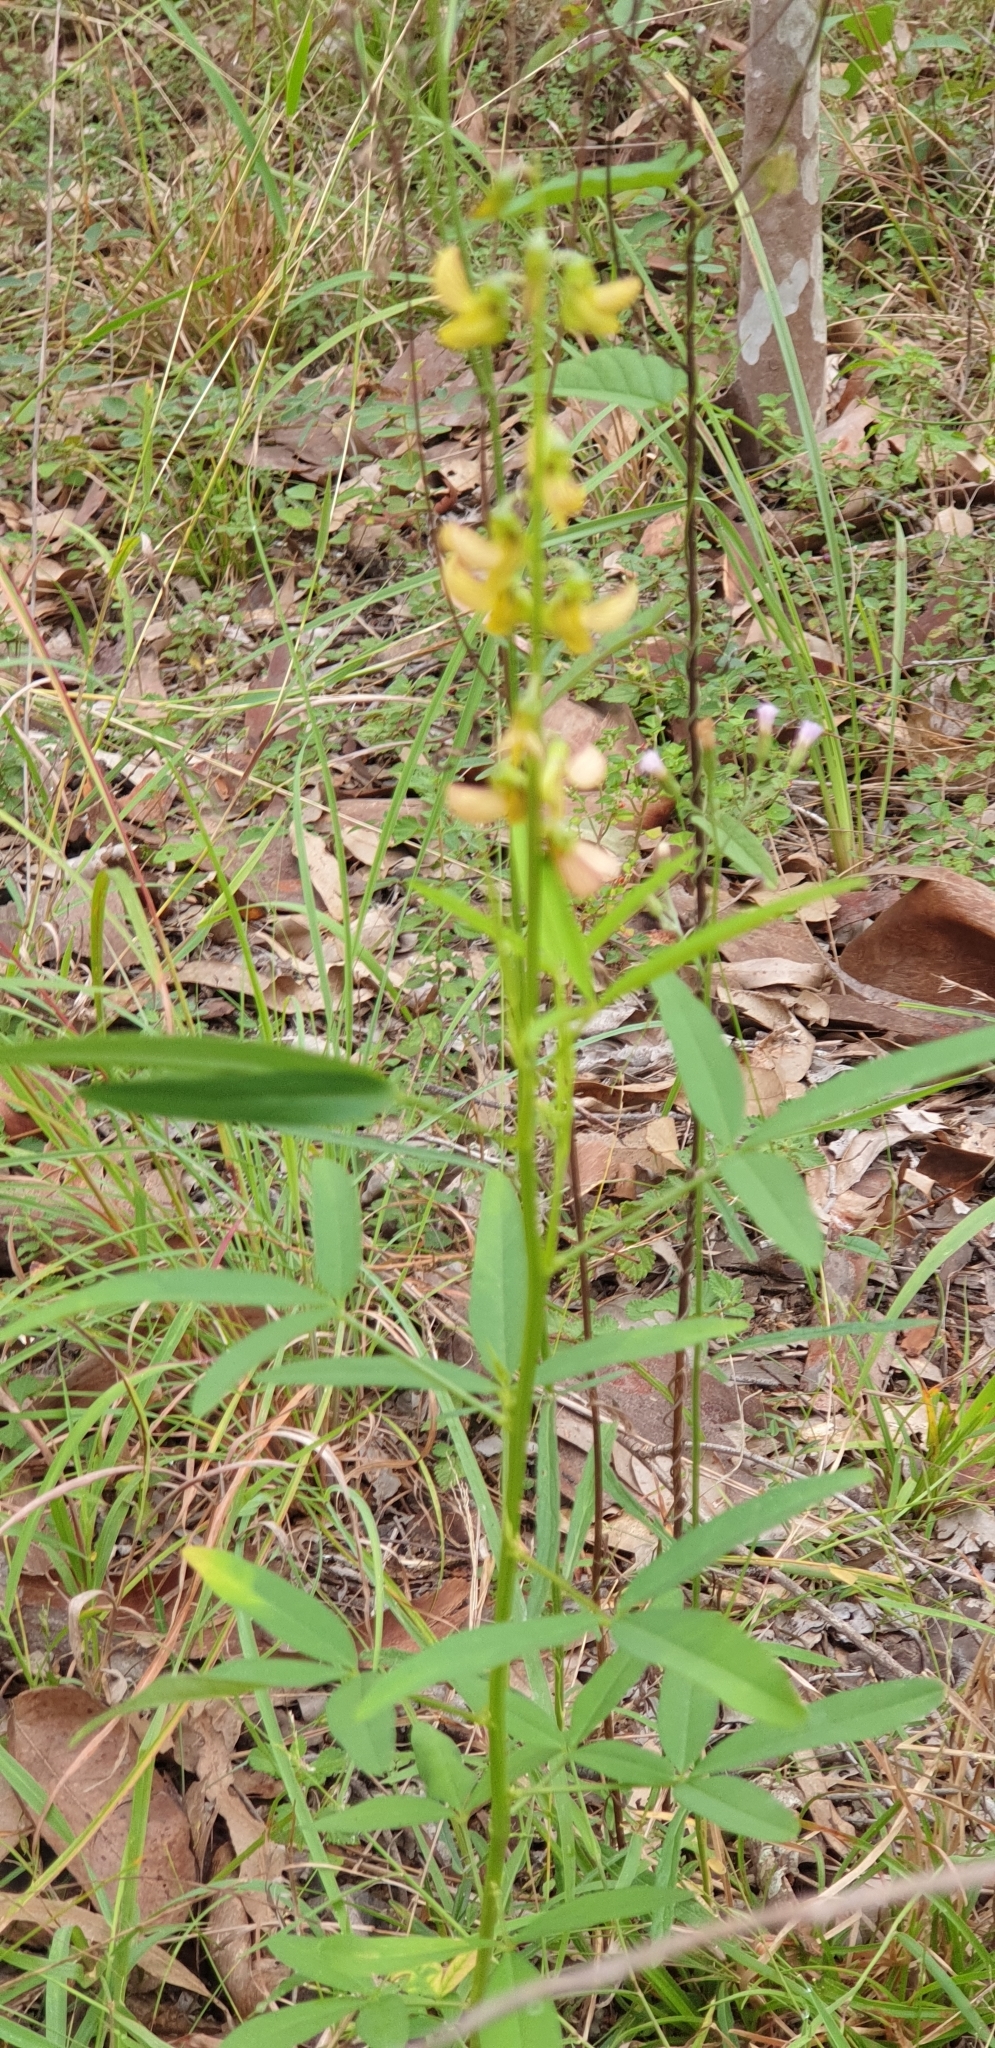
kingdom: Plantae
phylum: Tracheophyta
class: Magnoliopsida
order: Fabales
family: Fabaceae
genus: Crotalaria
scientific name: Crotalaria pallida
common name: Smooth rattlebox
